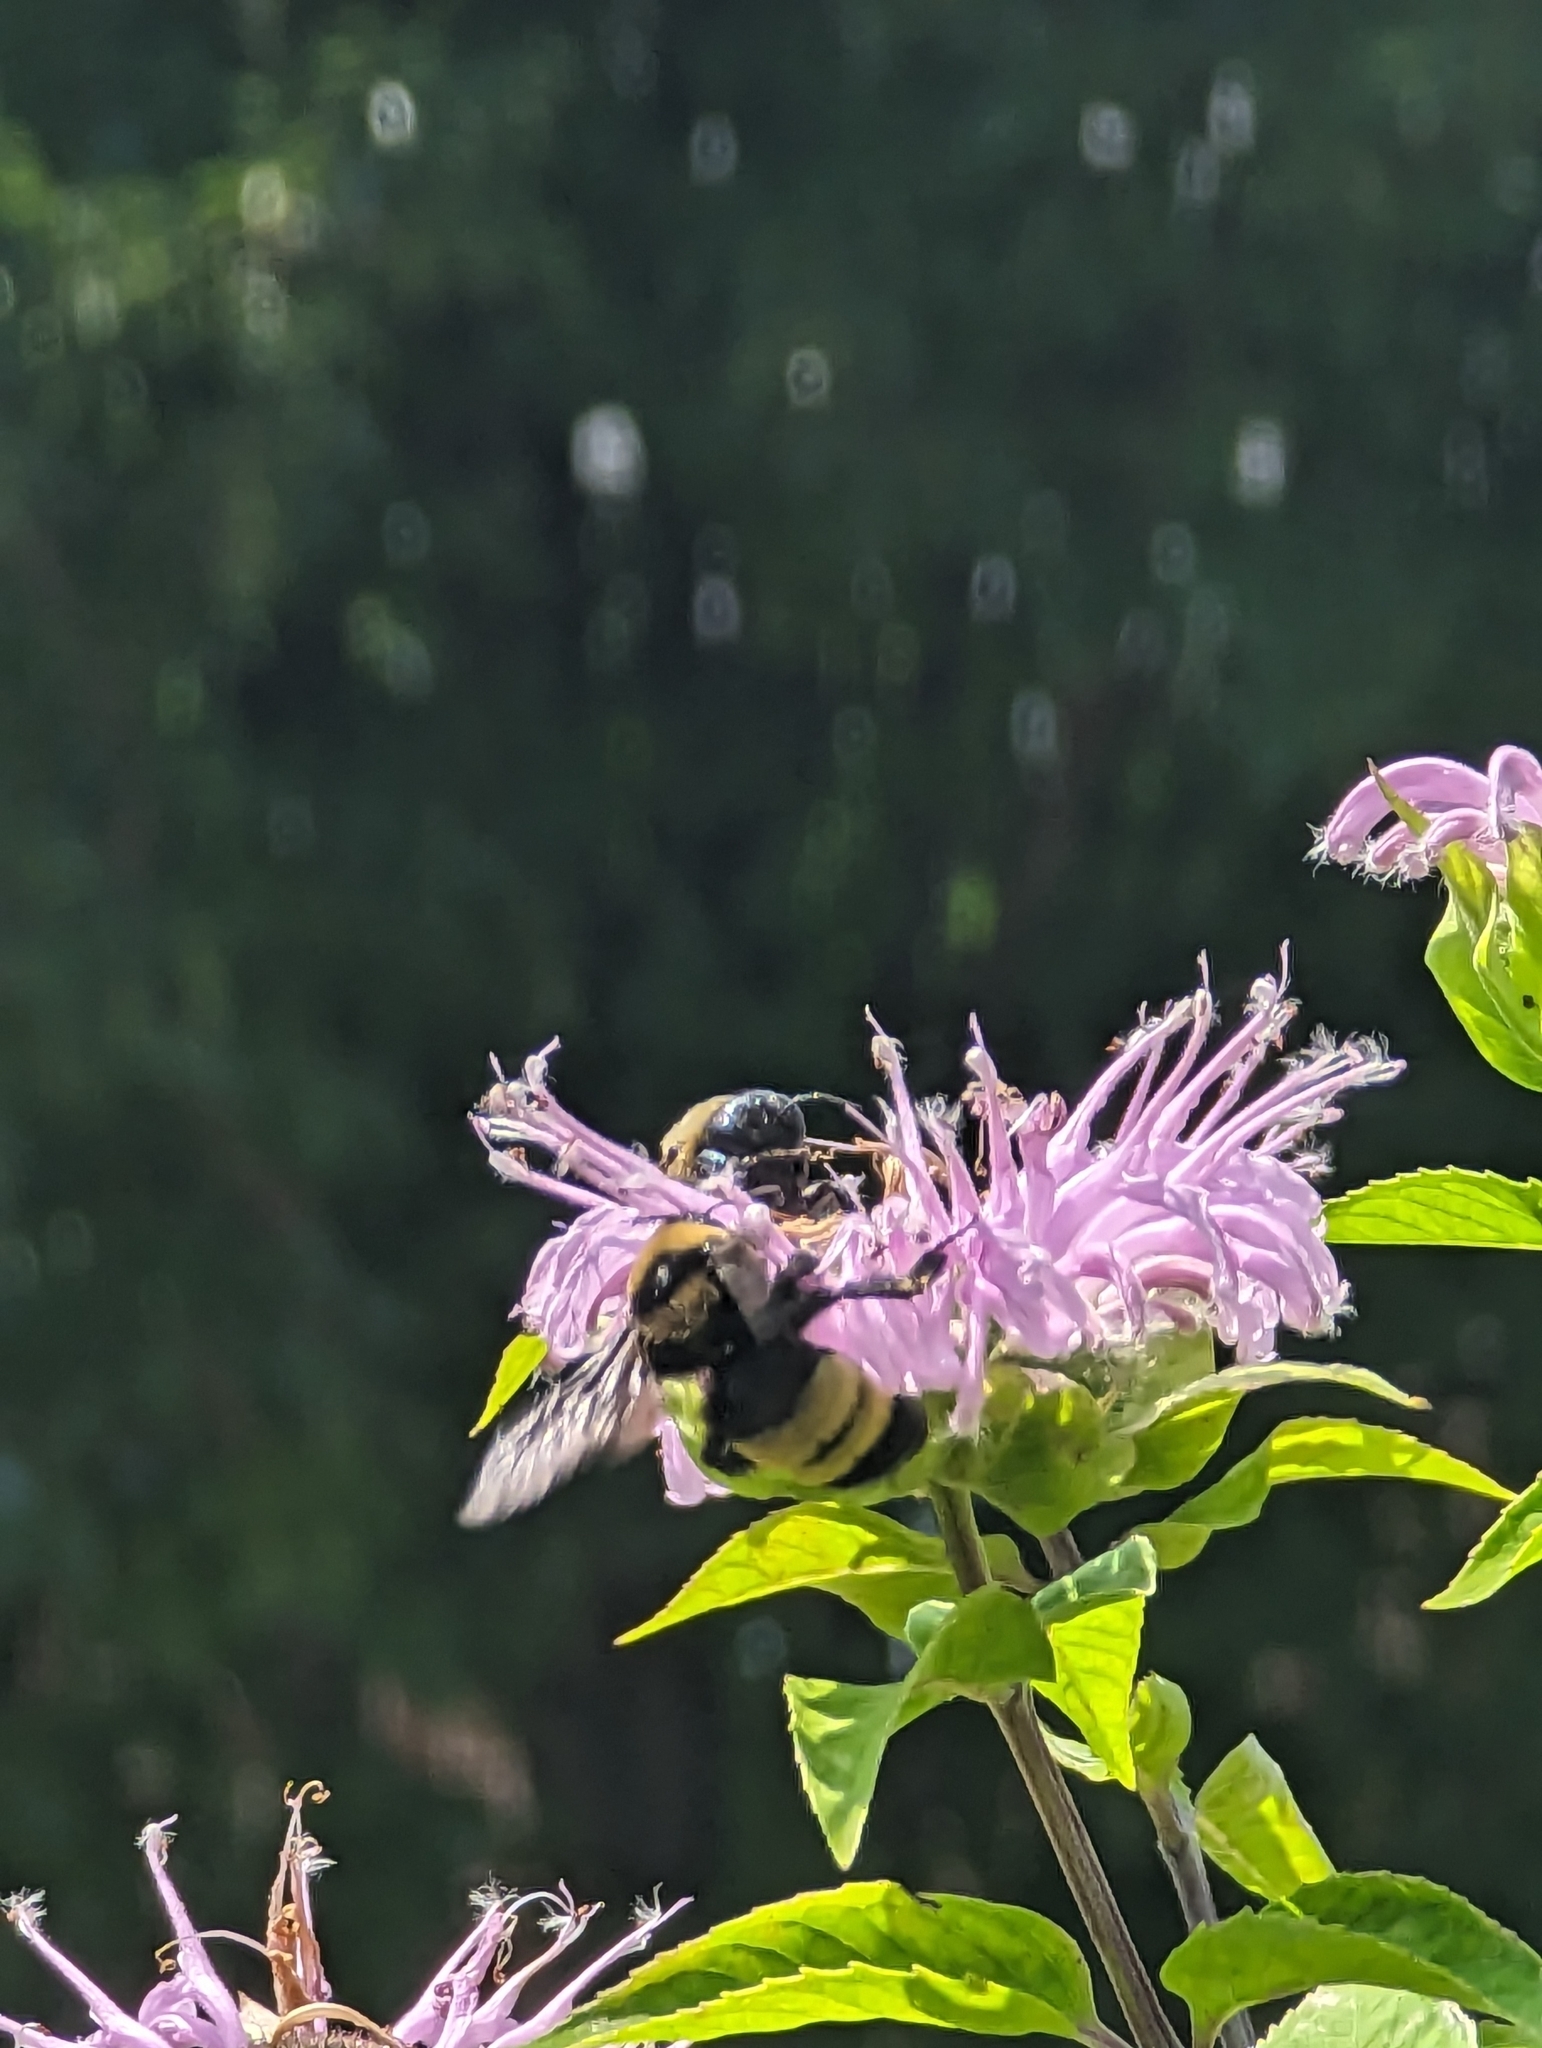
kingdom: Animalia
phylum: Arthropoda
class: Insecta
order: Hymenoptera
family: Apidae
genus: Bombus
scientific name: Bombus auricomus
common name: Black and gold bumble bee
